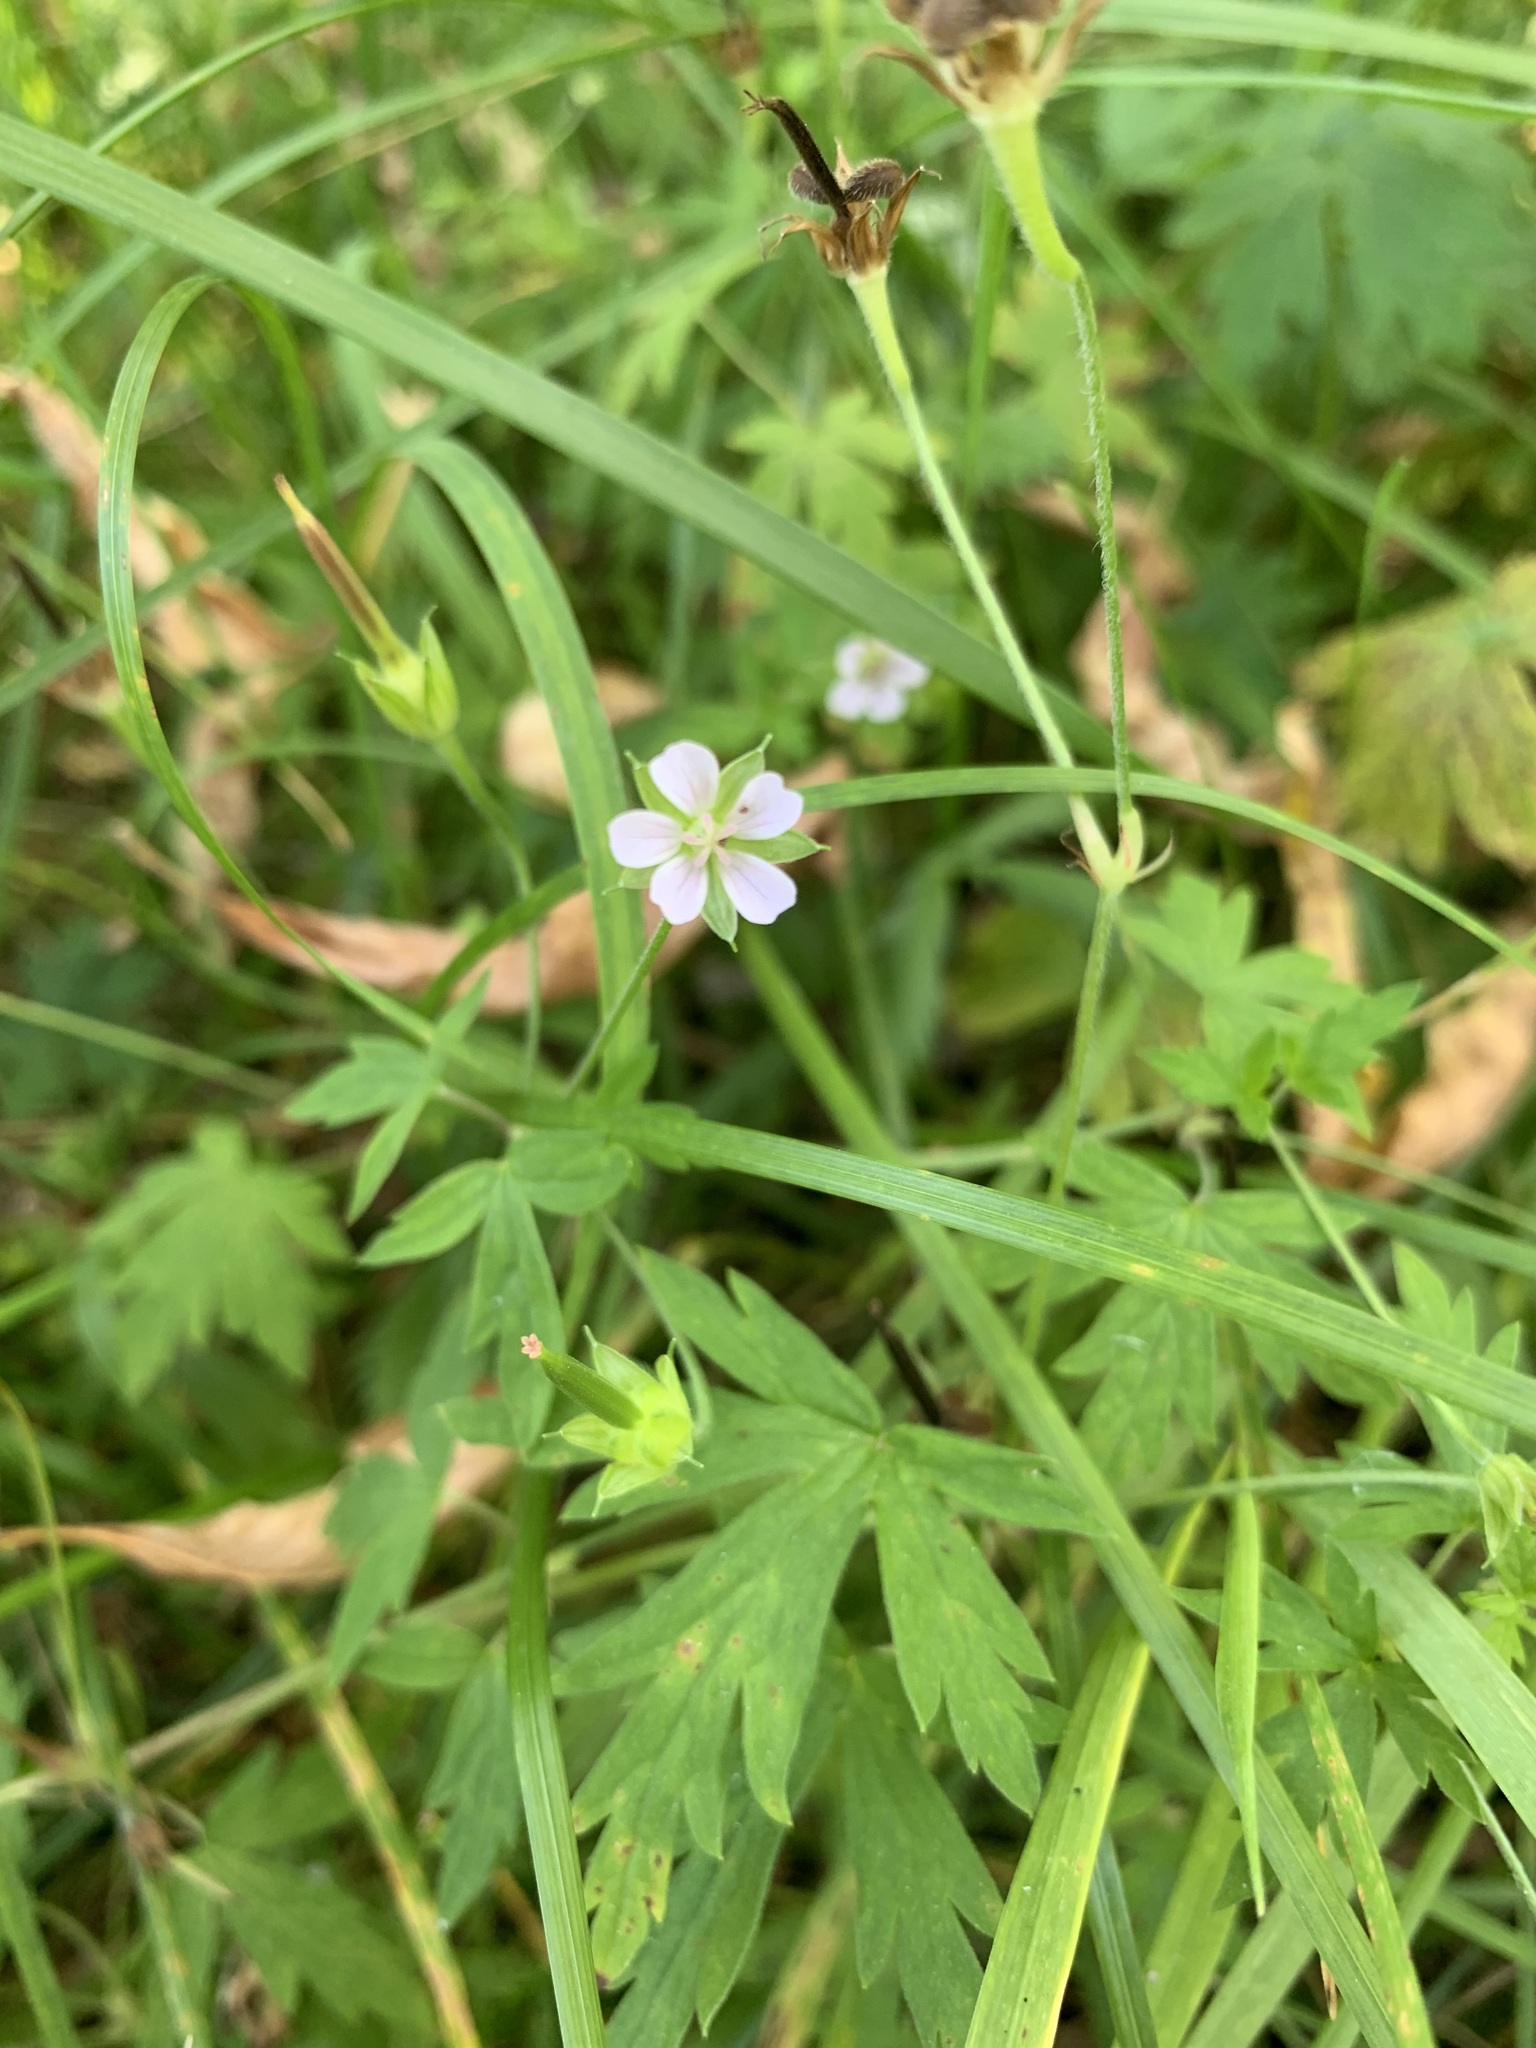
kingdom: Plantae
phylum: Tracheophyta
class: Magnoliopsida
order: Geraniales
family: Geraniaceae
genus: Geranium
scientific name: Geranium sibiricum
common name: Siberian crane's-bill
